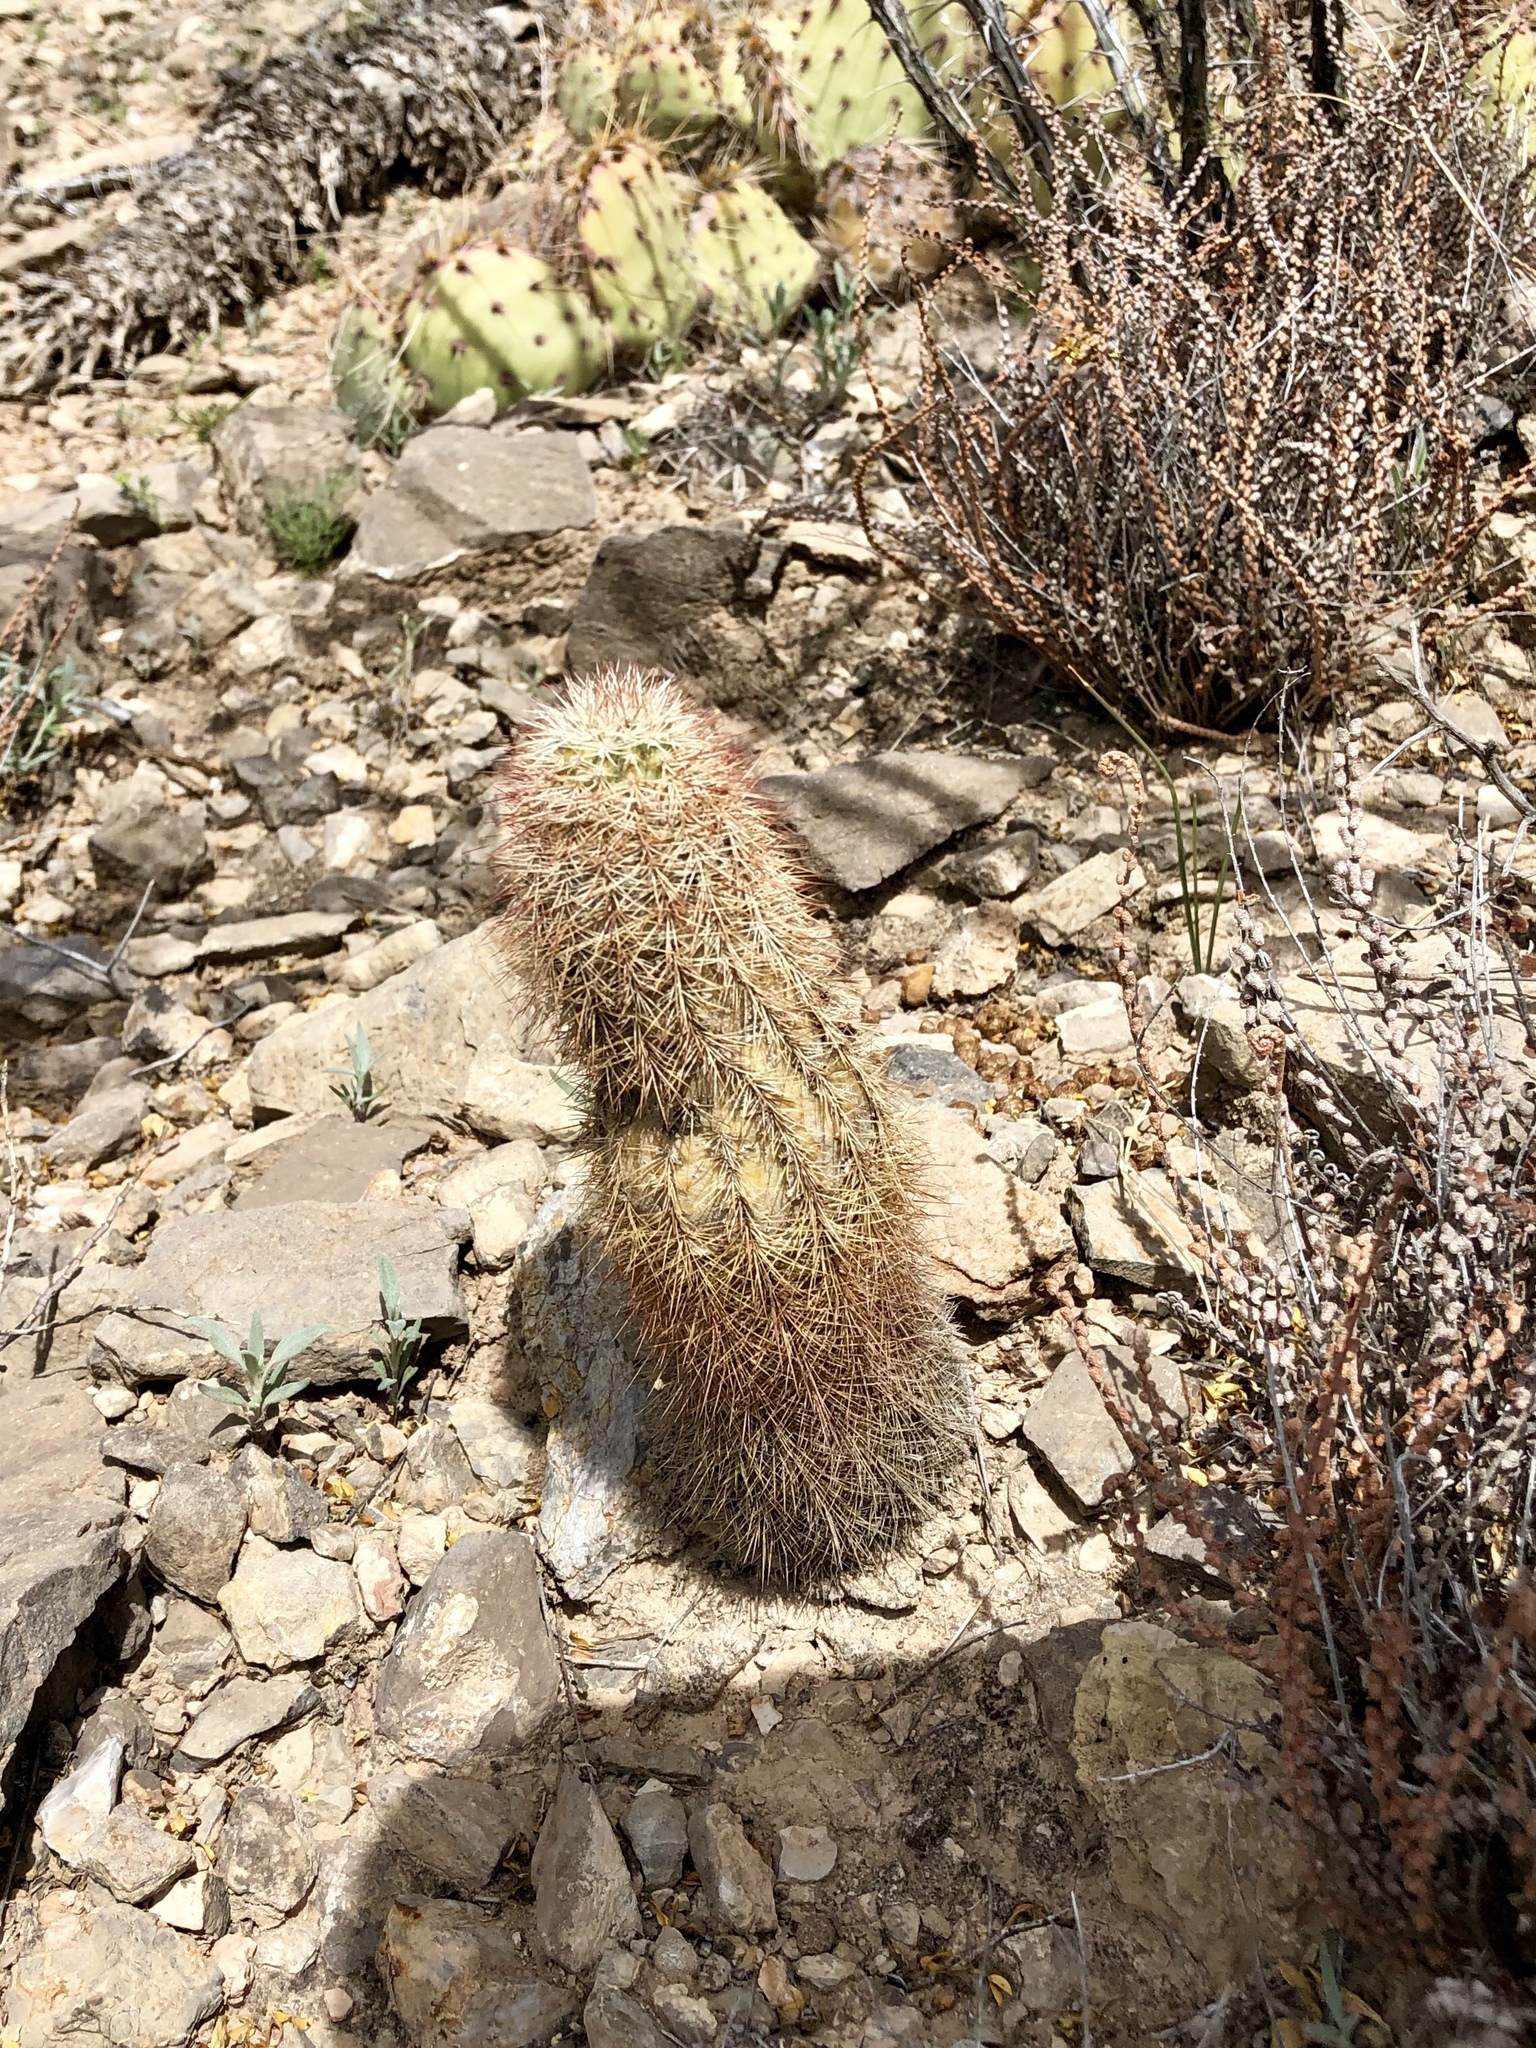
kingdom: Plantae
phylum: Tracheophyta
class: Magnoliopsida
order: Caryophyllales
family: Cactaceae
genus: Echinocereus
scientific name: Echinocereus dasyacanthus
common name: Spiny hedgehog cactus
